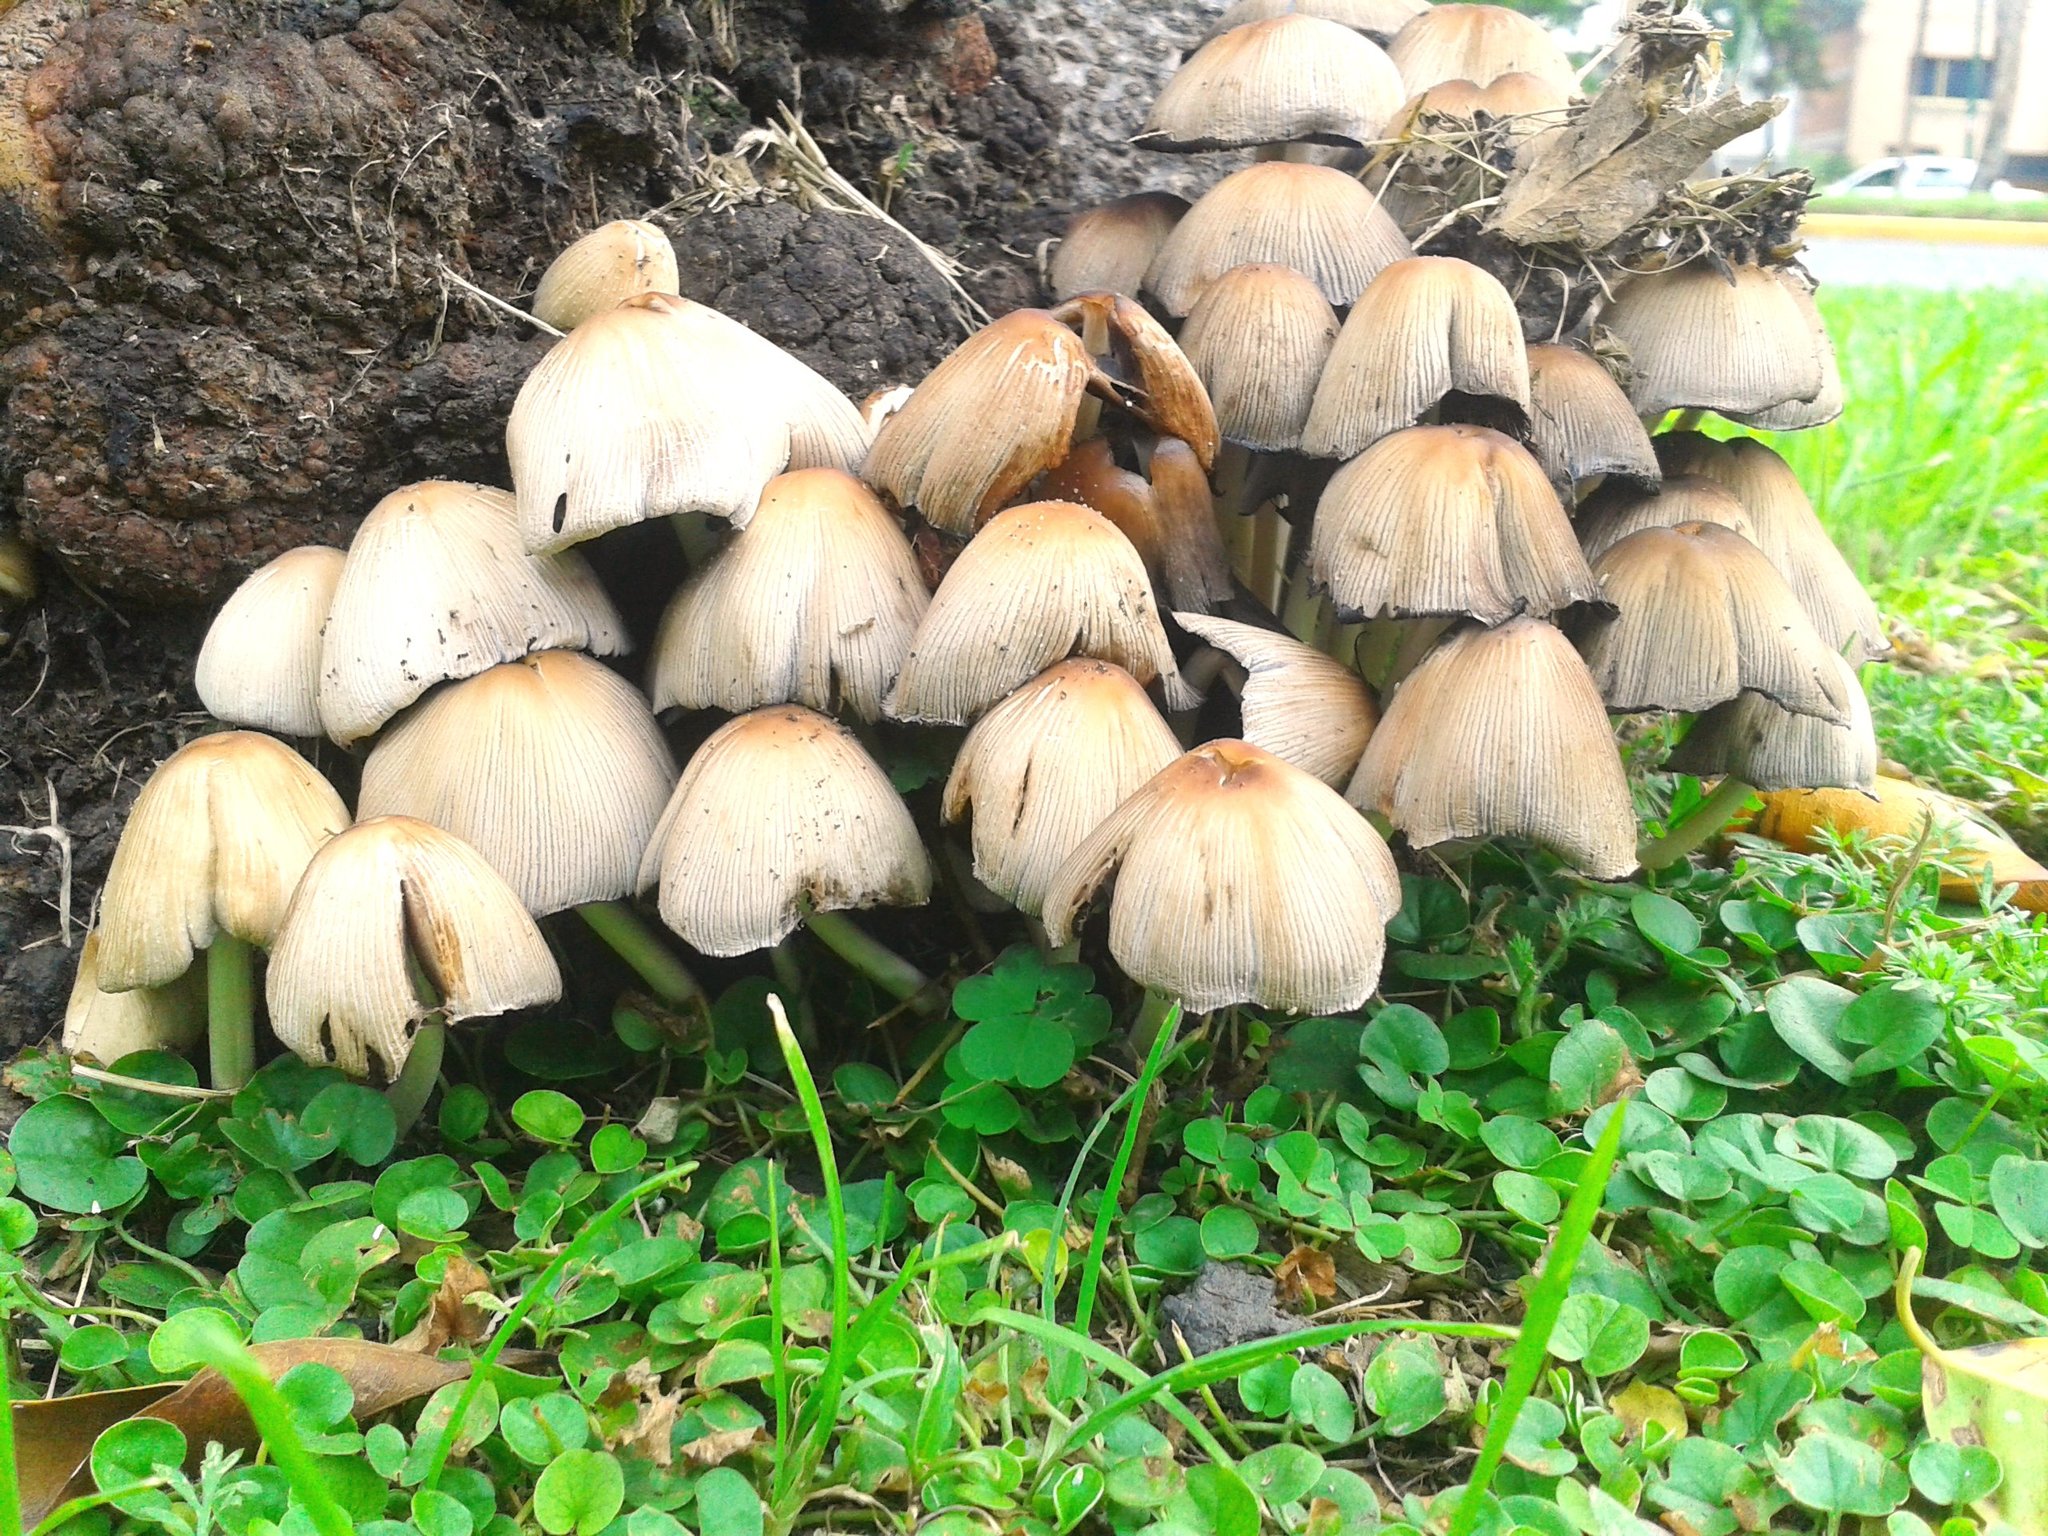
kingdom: Fungi
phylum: Basidiomycota
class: Agaricomycetes
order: Agaricales
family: Psathyrellaceae
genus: Coprinellus
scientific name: Coprinellus micaceus
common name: Glistening ink-cap
